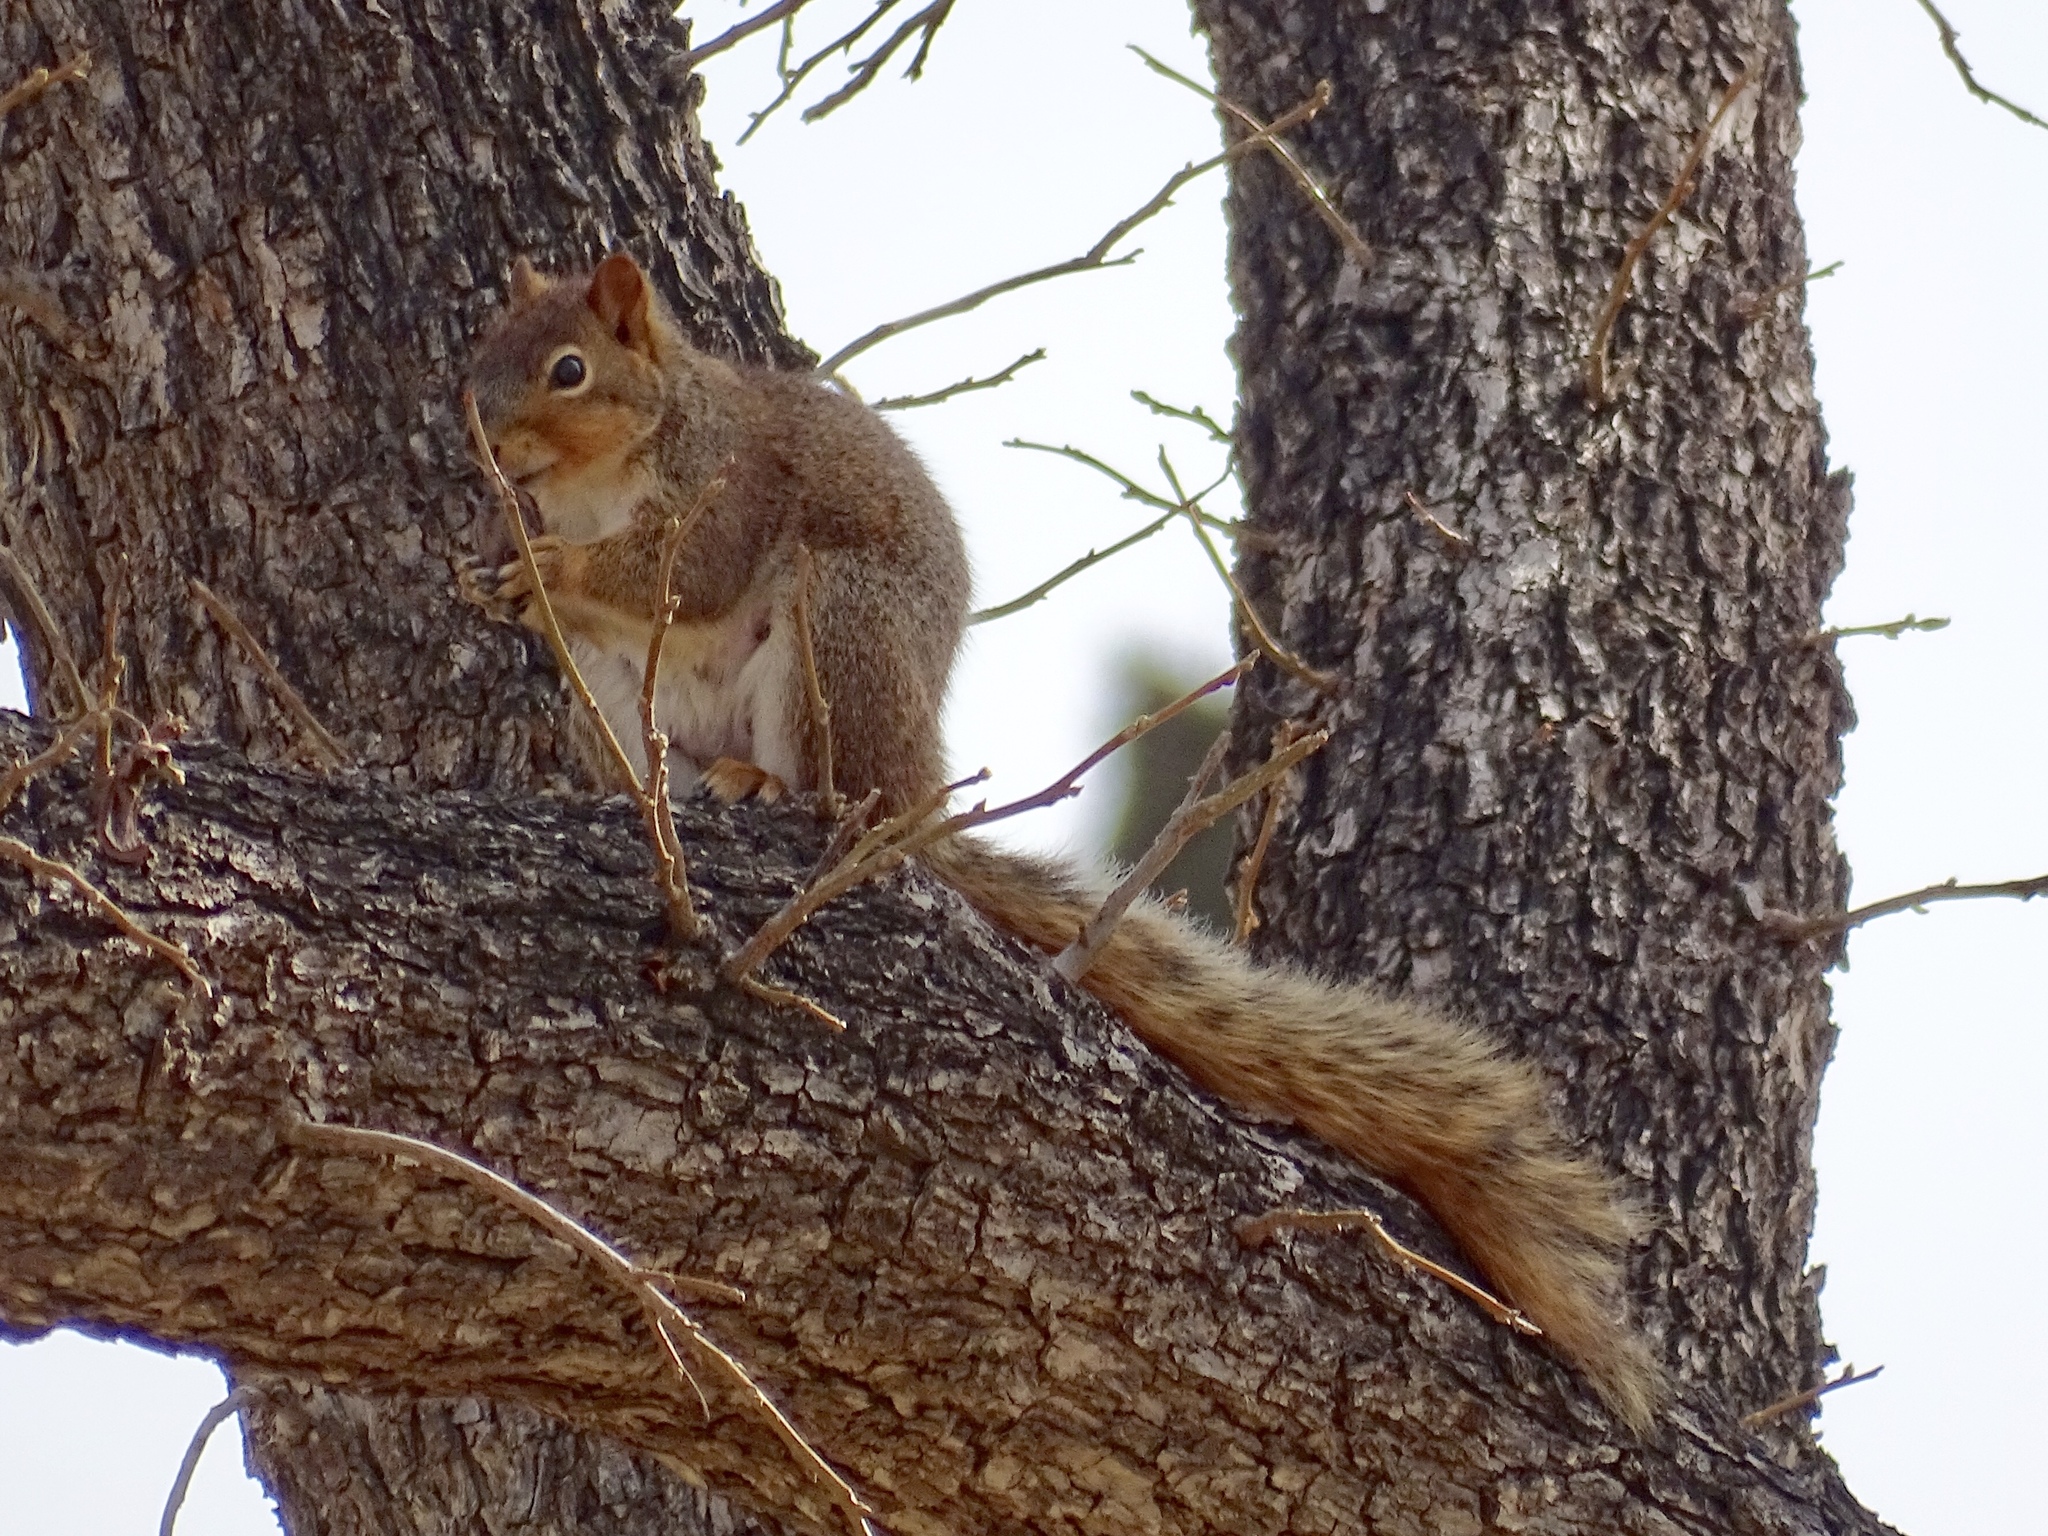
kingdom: Animalia
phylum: Chordata
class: Mammalia
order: Rodentia
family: Sciuridae
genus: Sciurus
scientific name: Sciurus niger
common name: Fox squirrel
